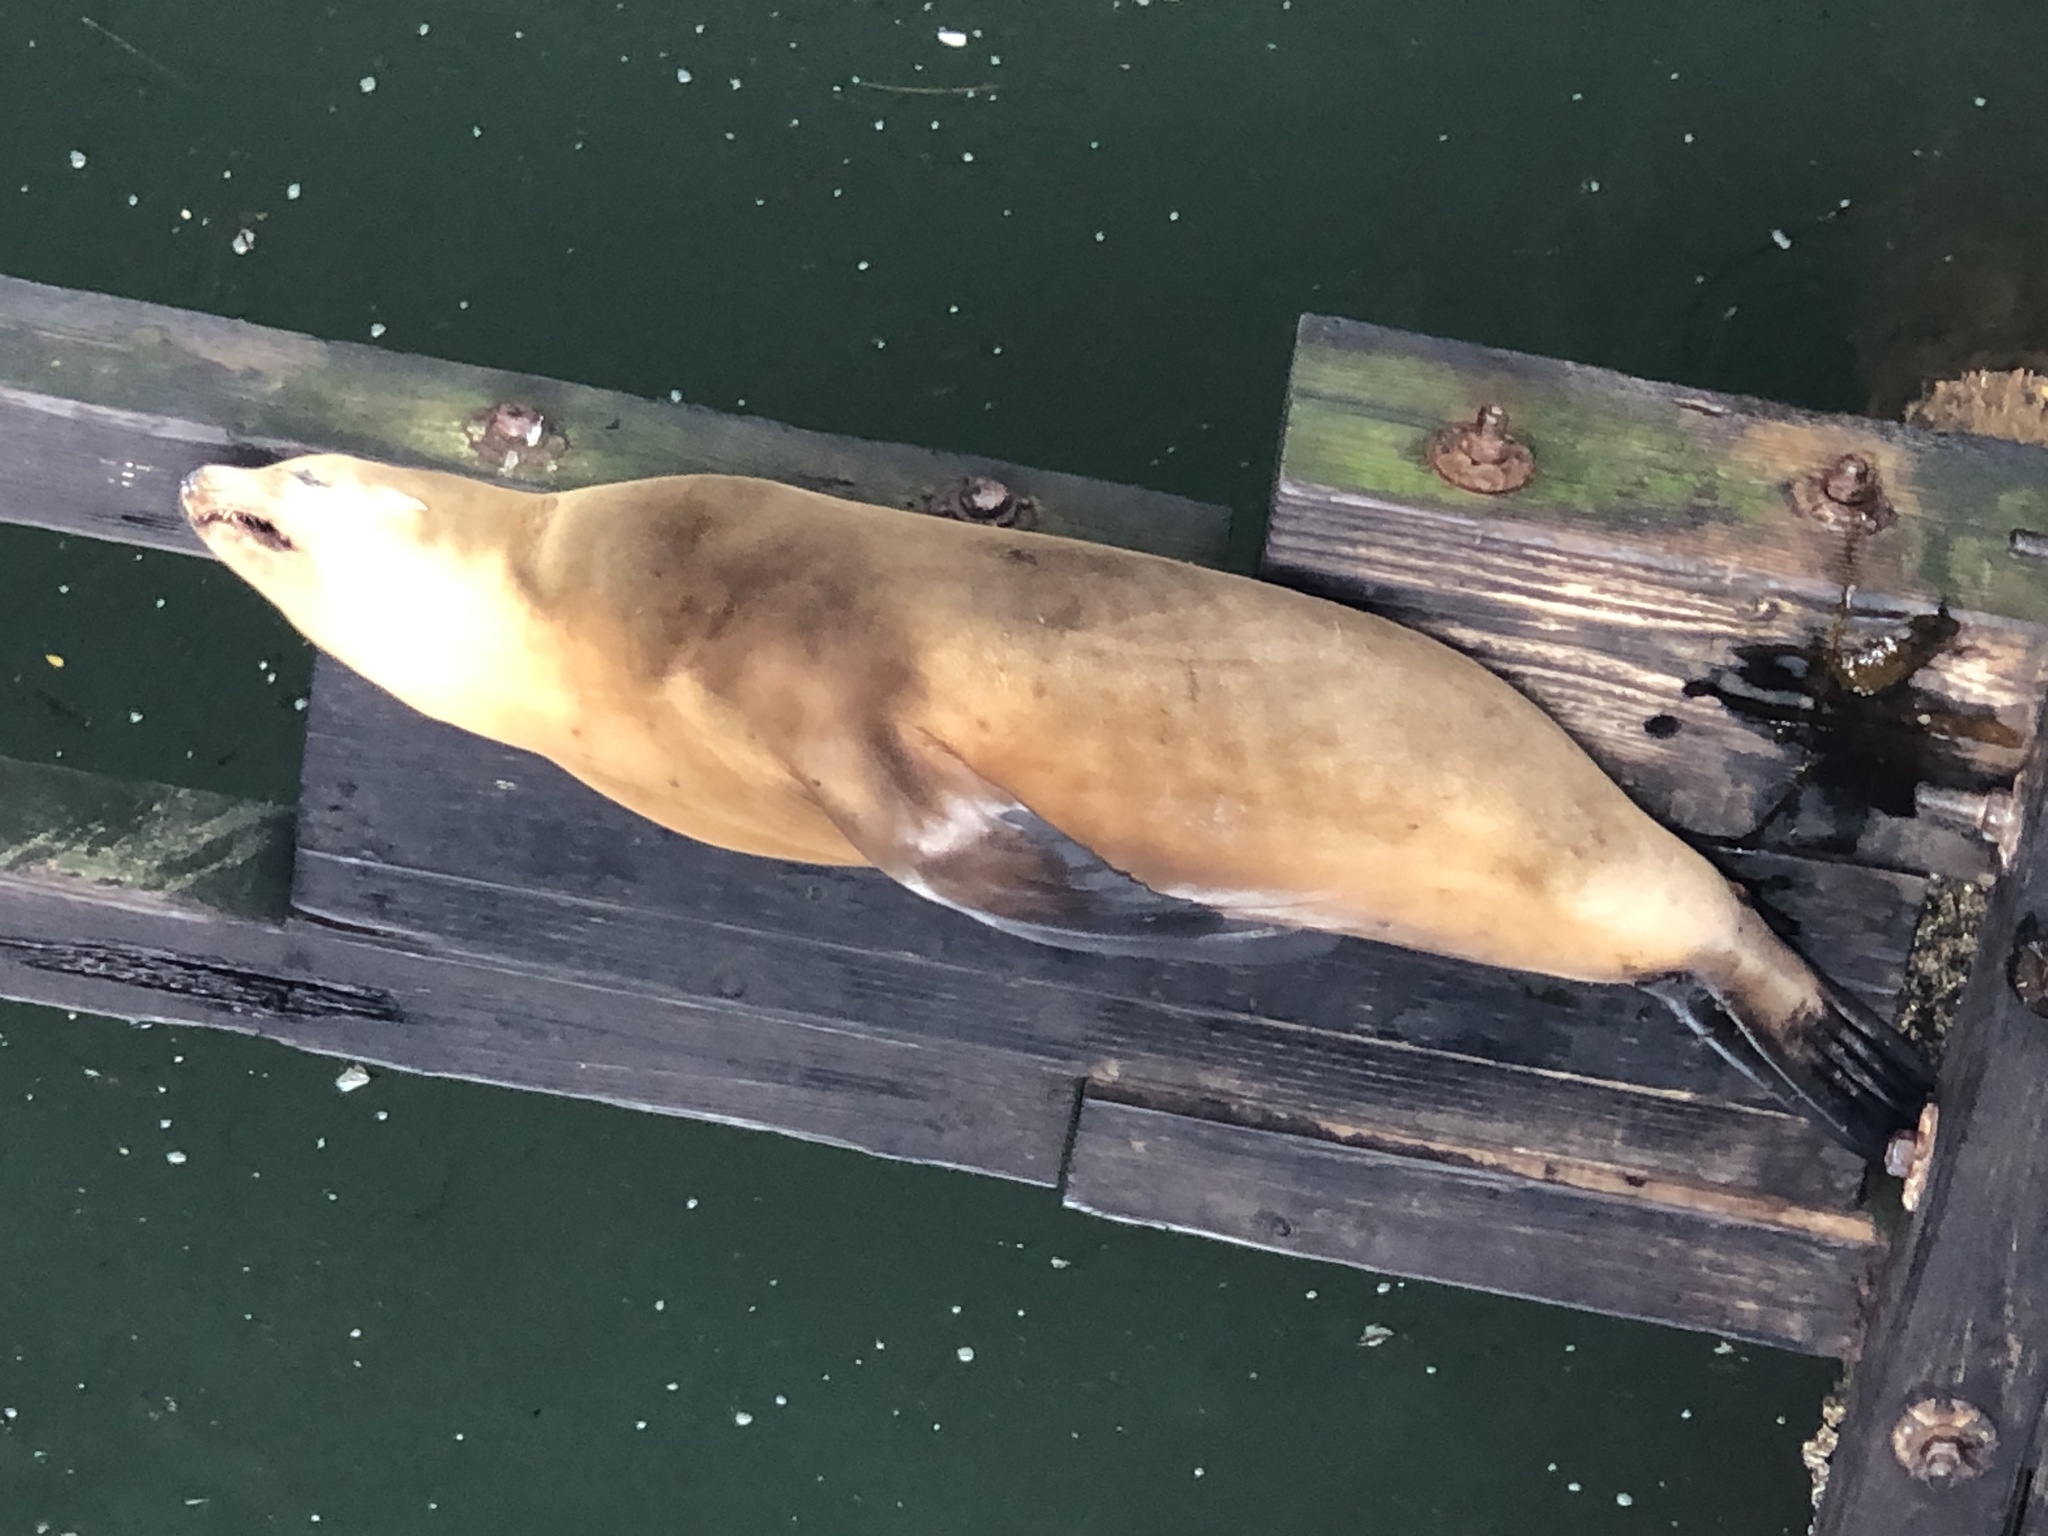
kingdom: Animalia
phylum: Chordata
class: Mammalia
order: Carnivora
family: Otariidae
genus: Zalophus
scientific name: Zalophus californianus
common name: California sea lion
